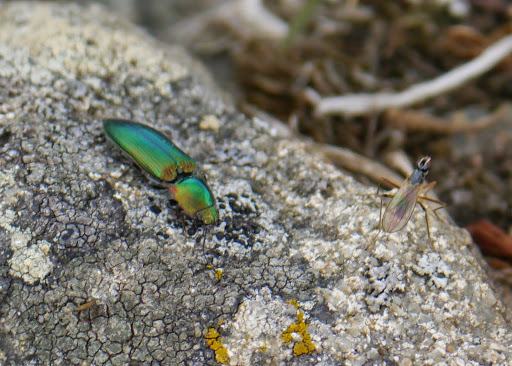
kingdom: Animalia
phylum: Arthropoda
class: Insecta
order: Coleoptera
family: Elateridae
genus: Nitidolimonius
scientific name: Nitidolimonius resplendens
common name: Resplendent click beetle
